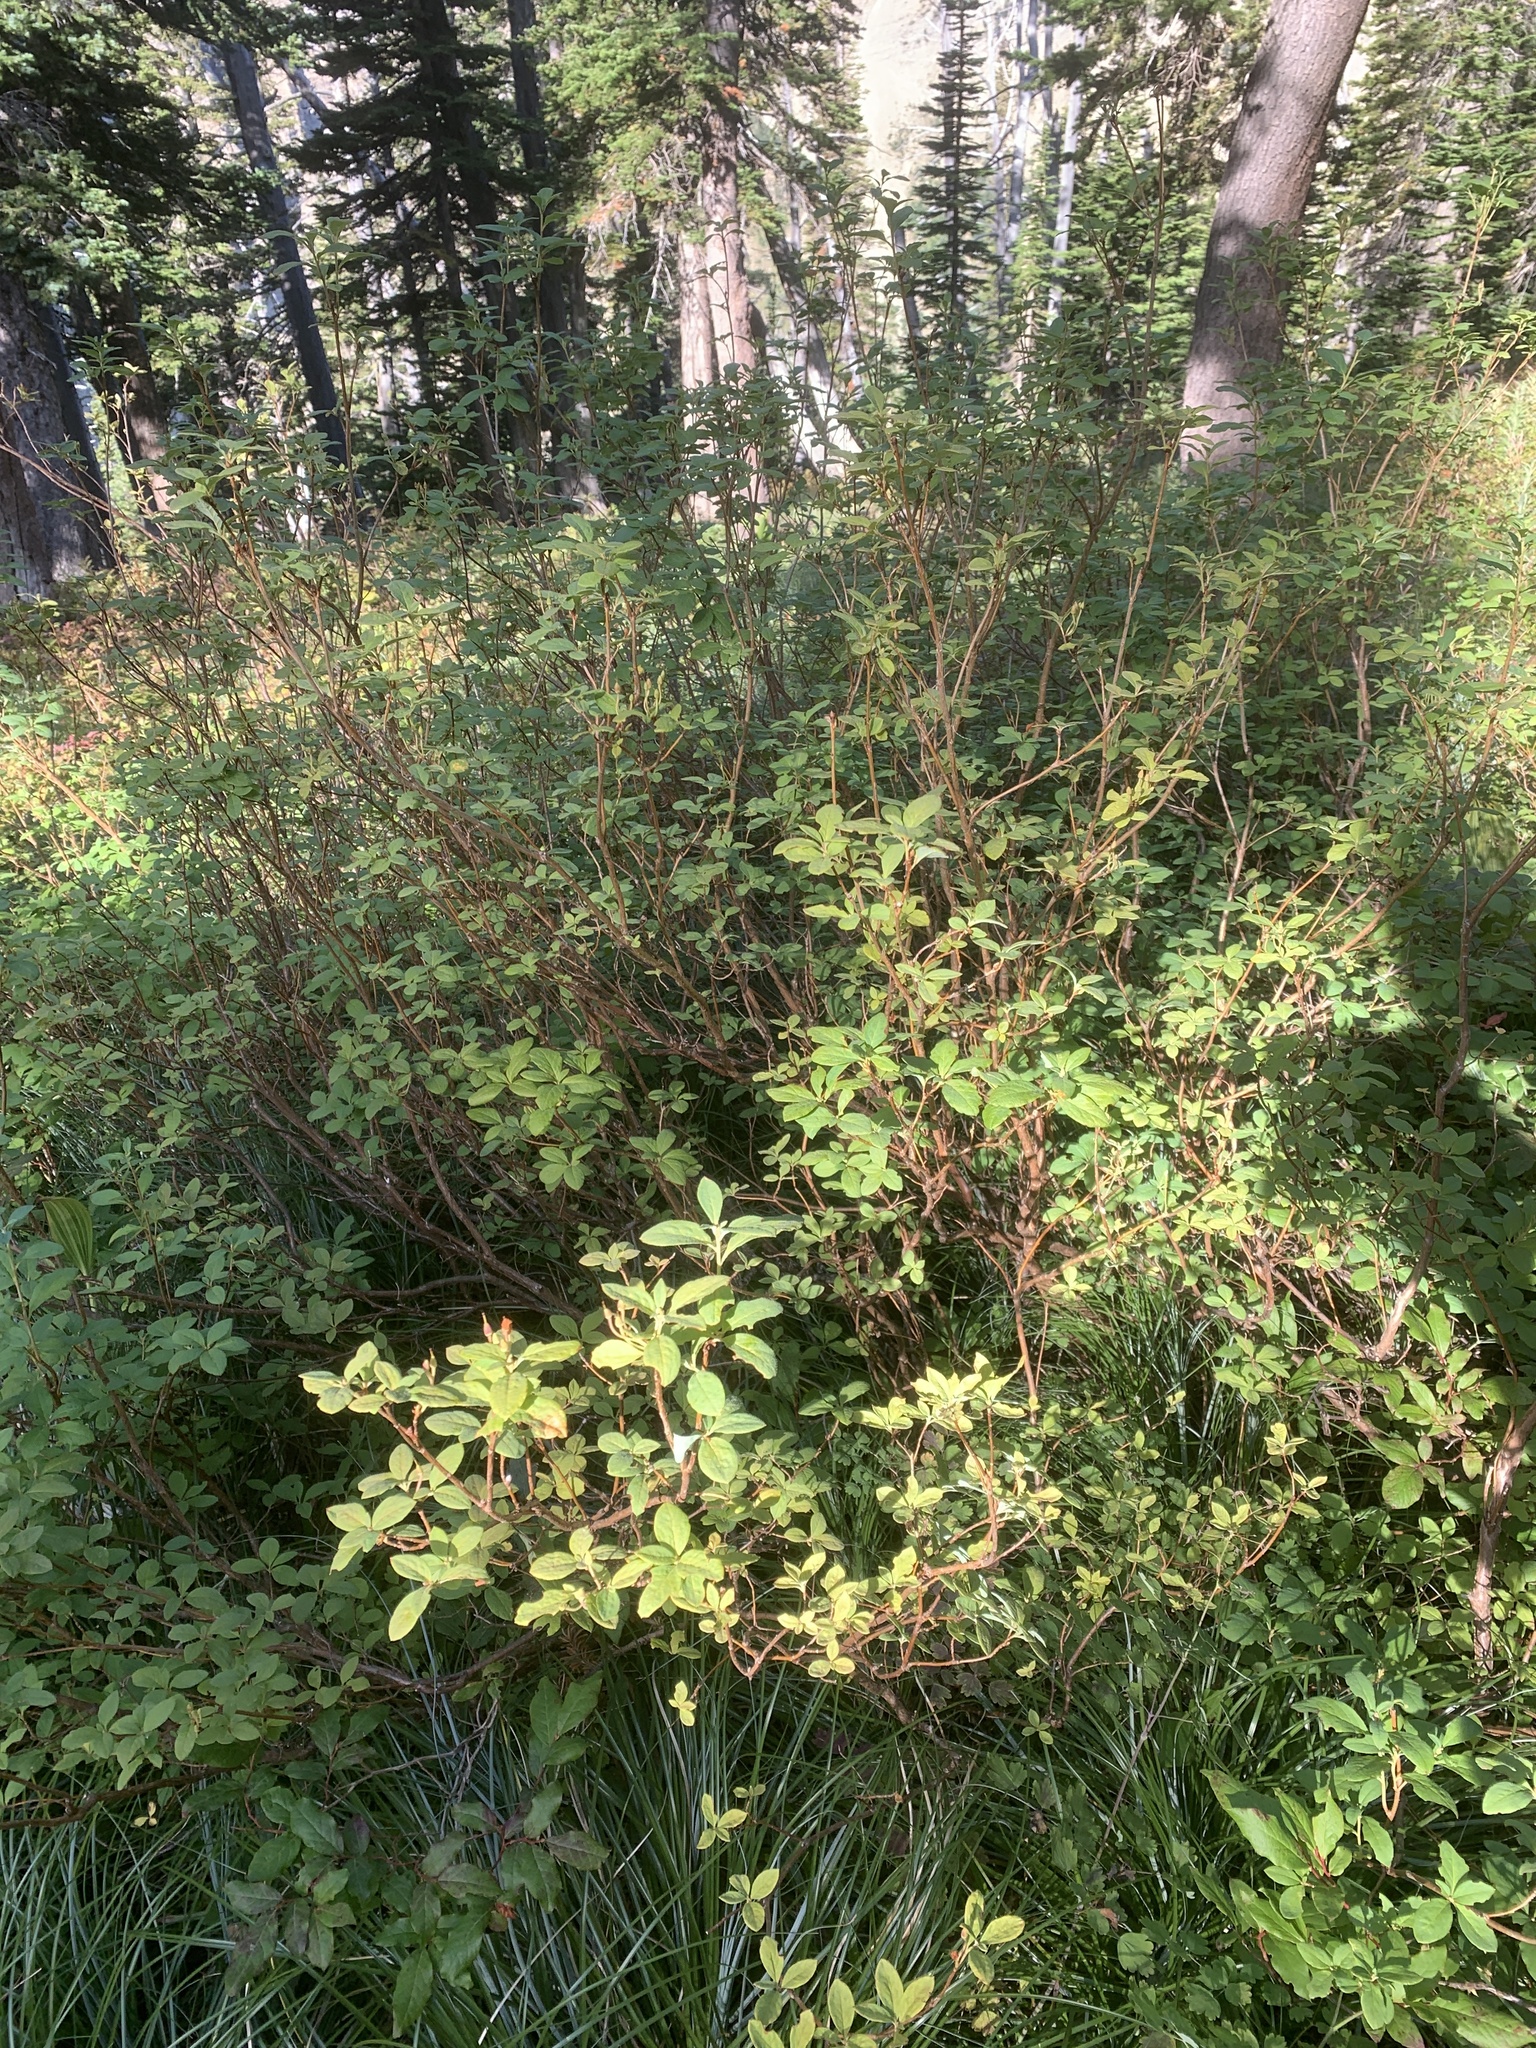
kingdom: Plantae
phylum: Tracheophyta
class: Magnoliopsida
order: Ericales
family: Ericaceae
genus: Rhododendron
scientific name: Rhododendron menziesii
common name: Pacific menziesia
